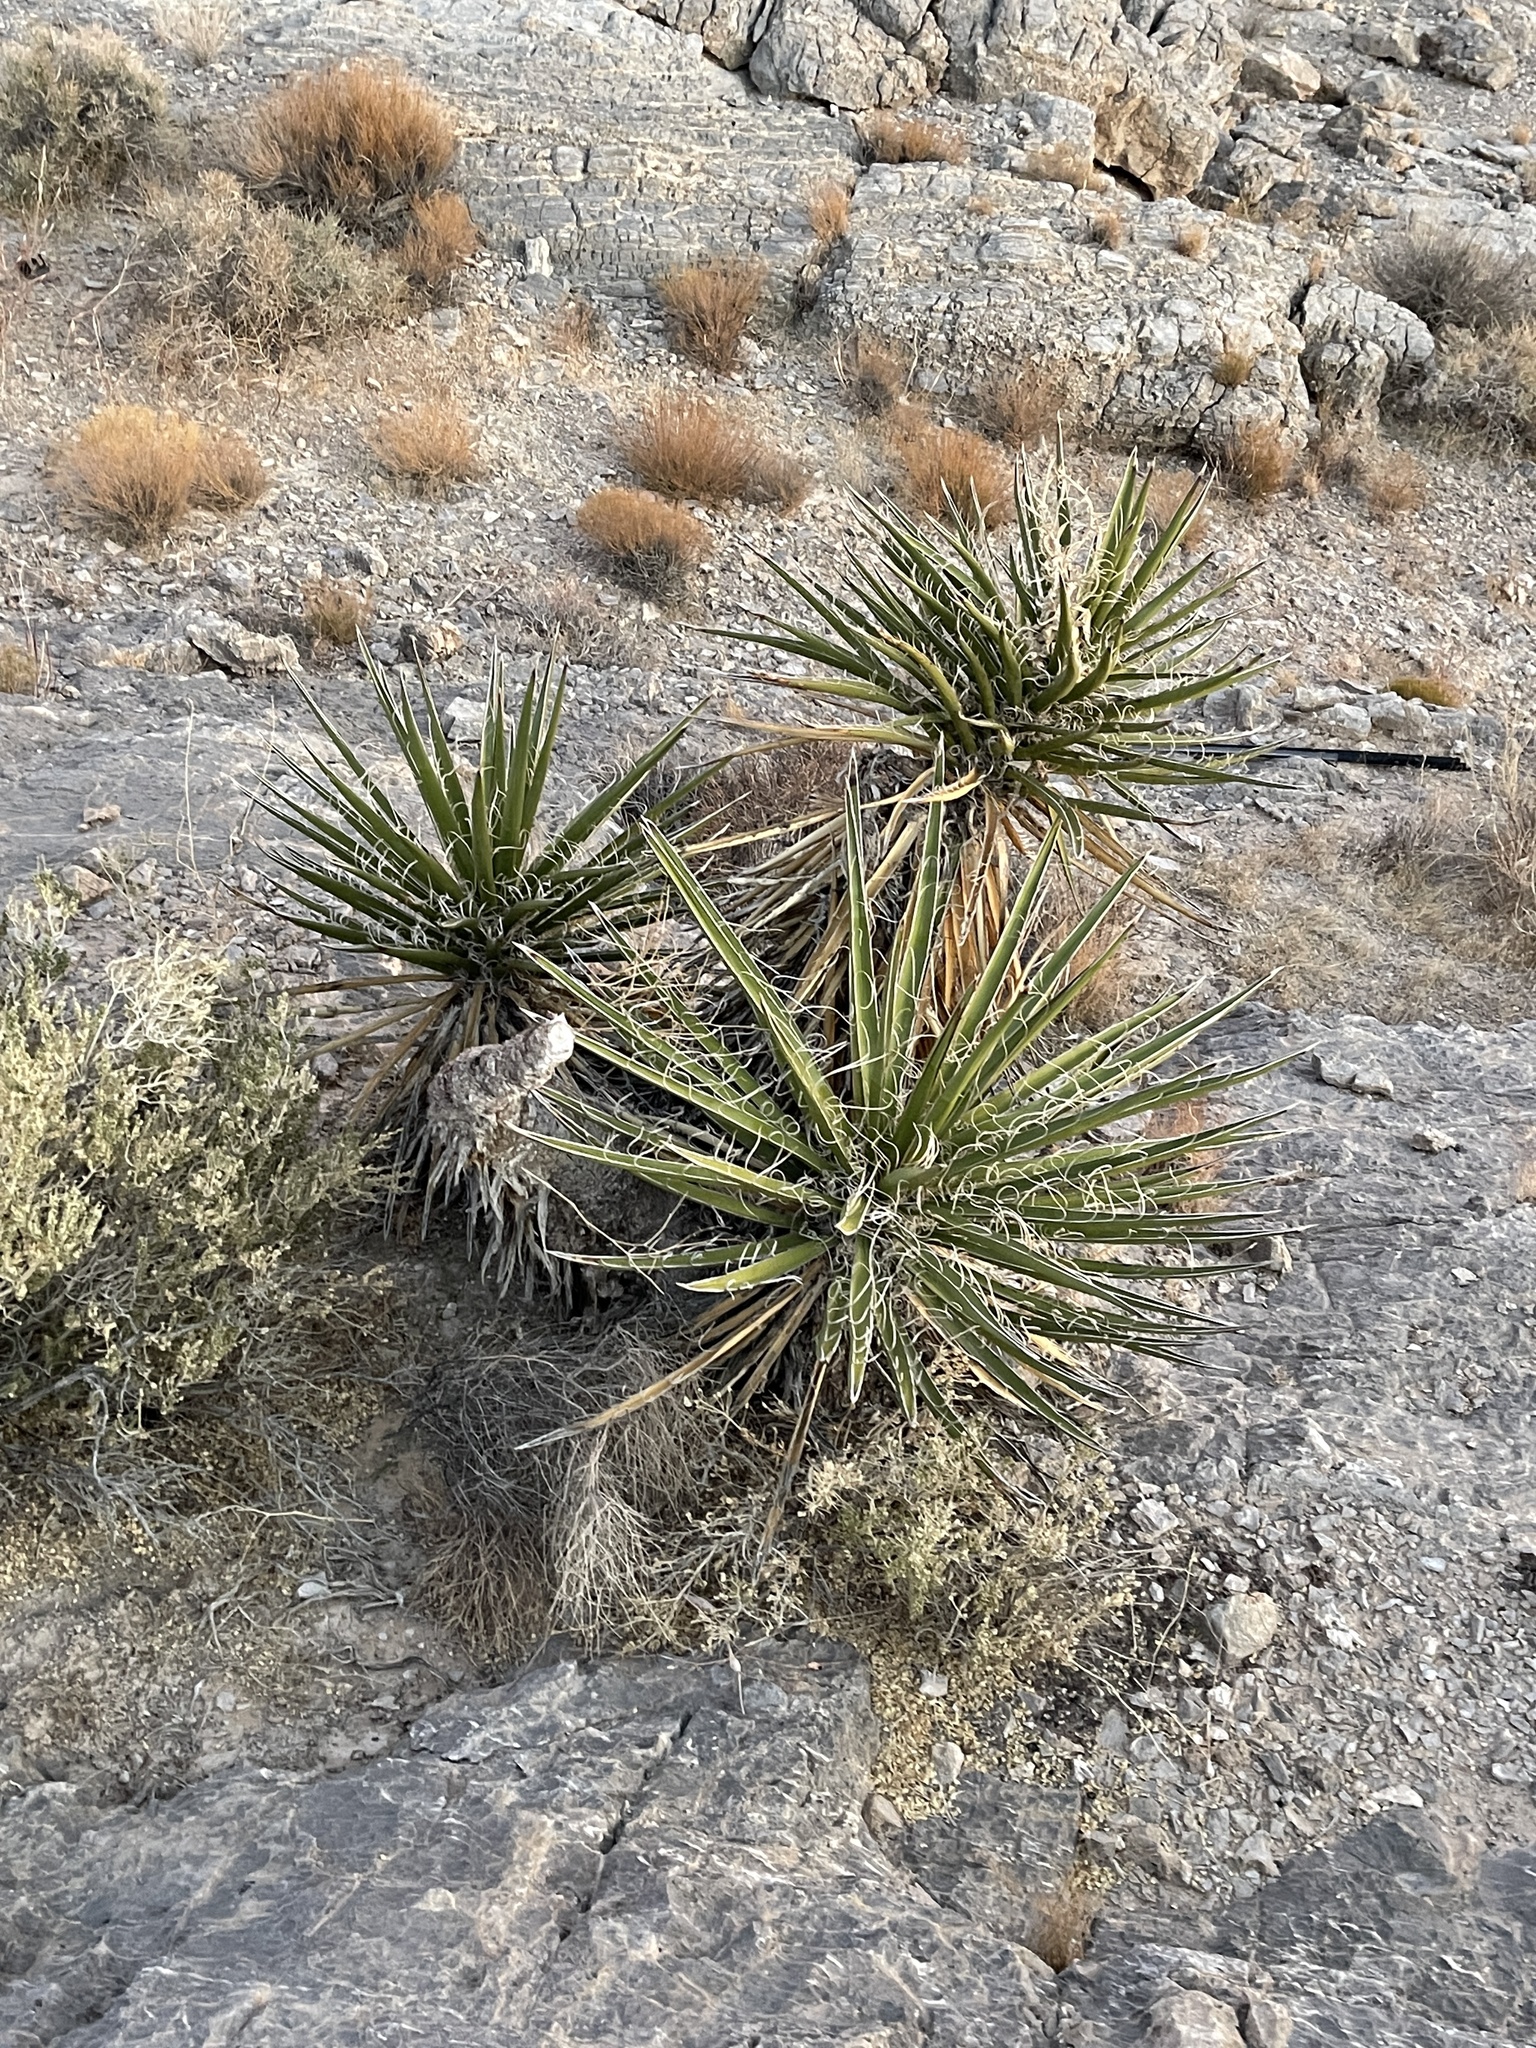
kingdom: Plantae
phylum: Tracheophyta
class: Liliopsida
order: Asparagales
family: Asparagaceae
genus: Yucca
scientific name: Yucca schidigera
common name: Mojave yucca
